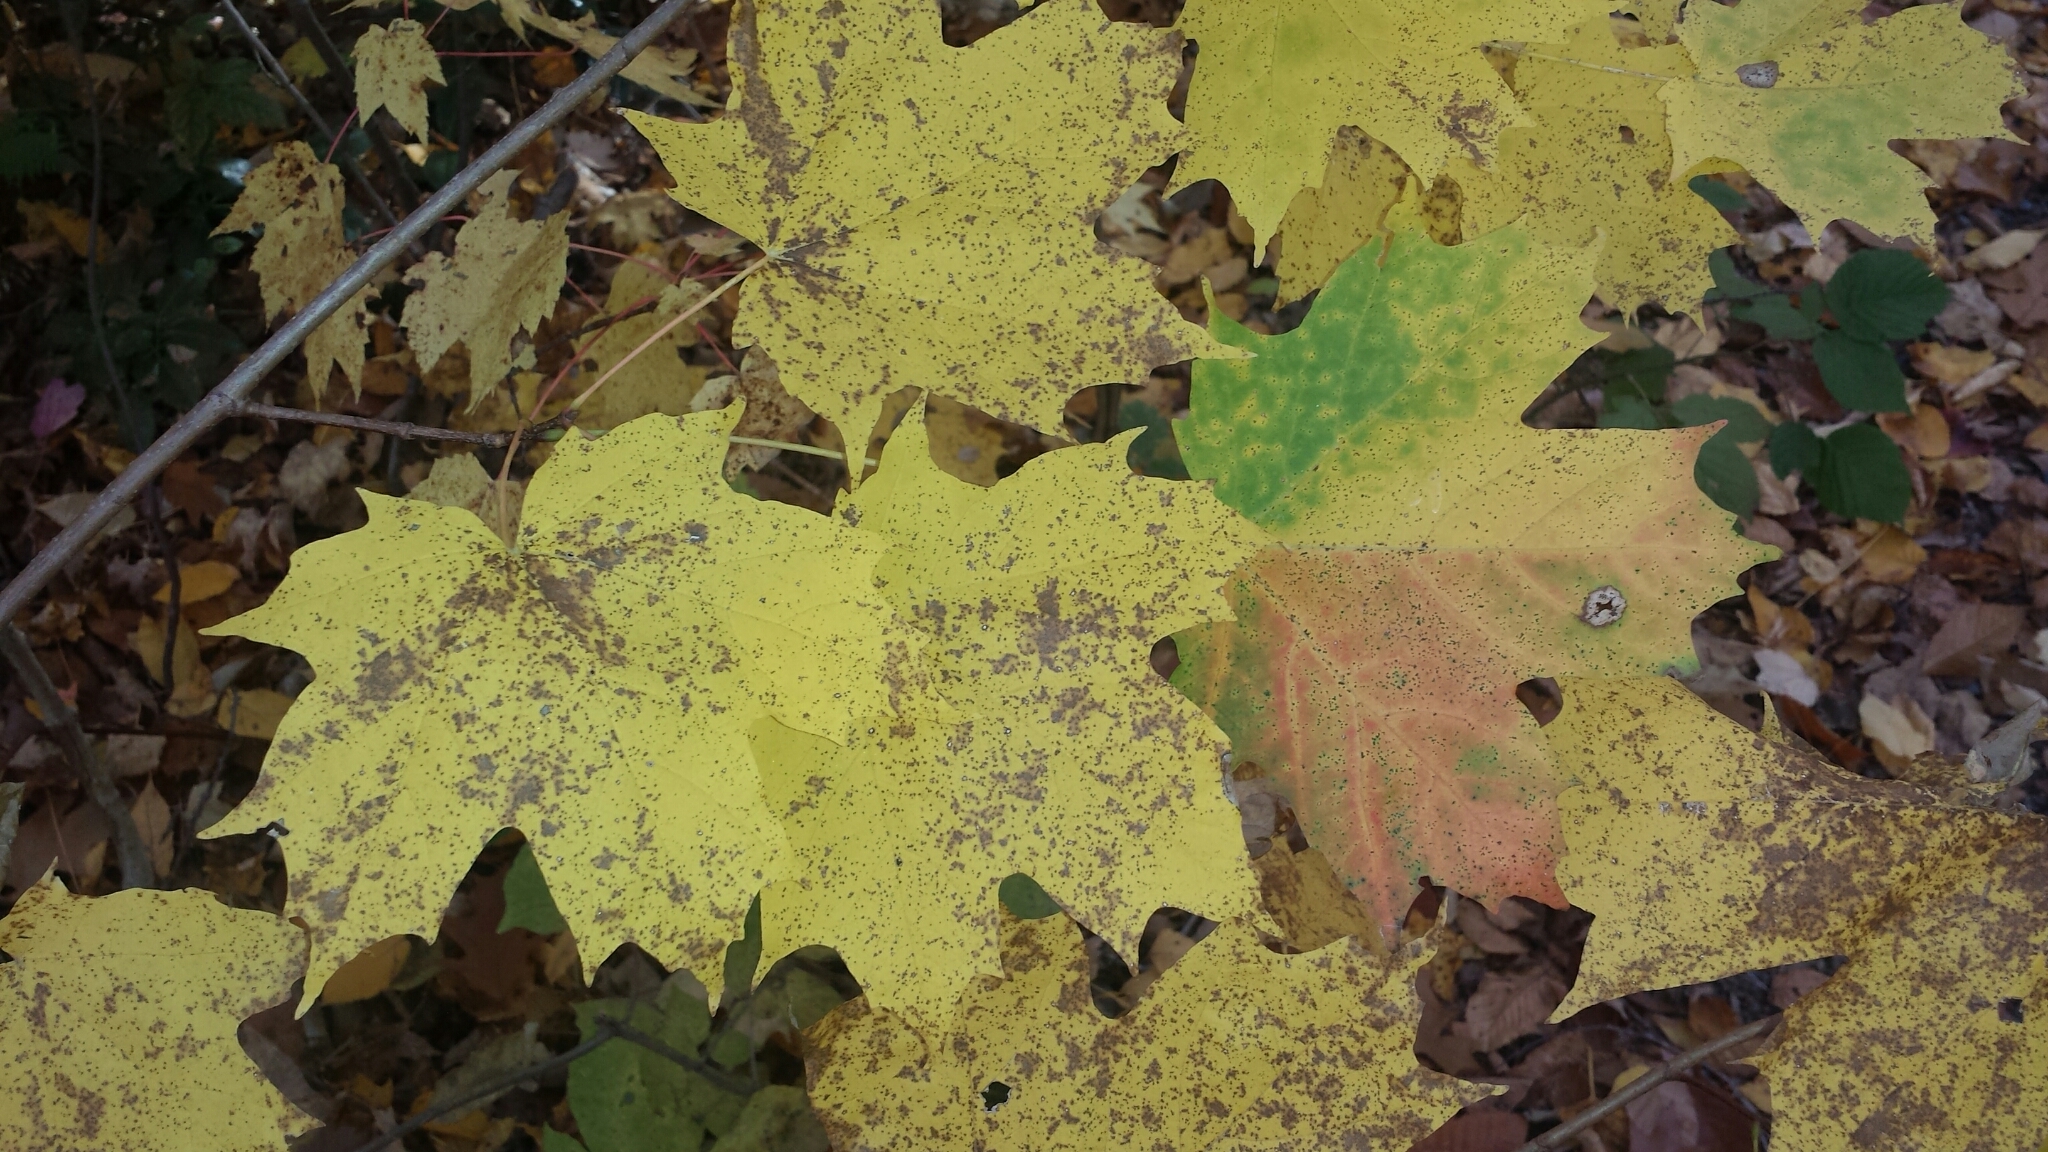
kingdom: Plantae
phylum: Tracheophyta
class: Magnoliopsida
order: Sapindales
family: Sapindaceae
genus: Acer
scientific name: Acer saccharum
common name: Sugar maple
